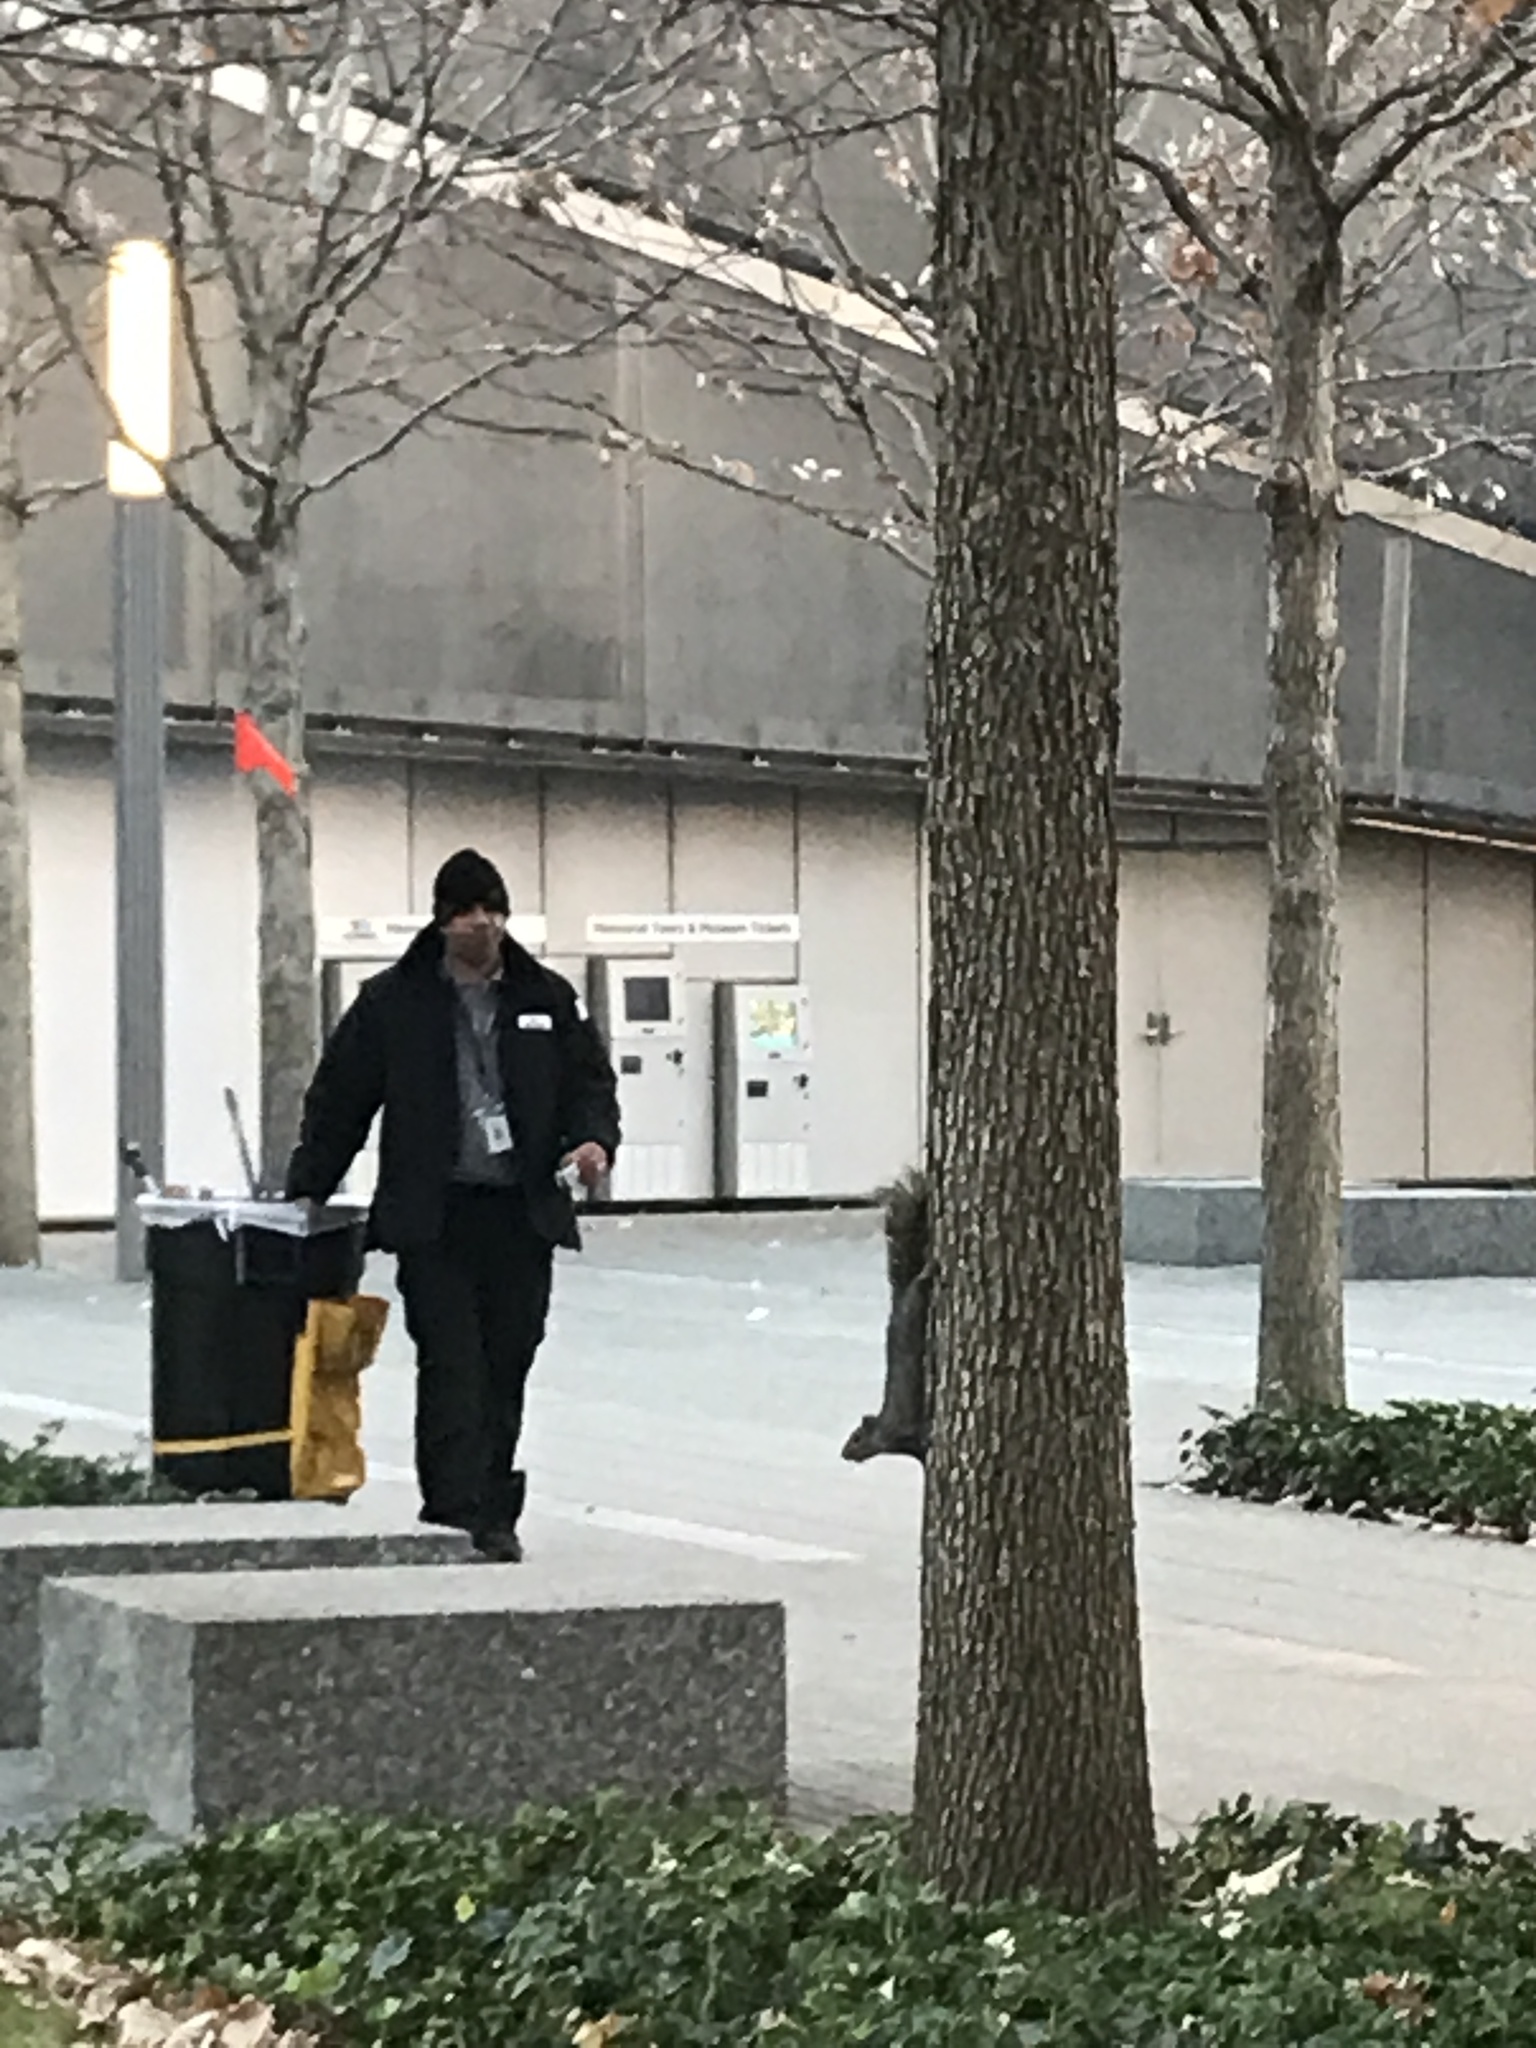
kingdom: Animalia
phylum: Chordata
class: Mammalia
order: Rodentia
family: Sciuridae
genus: Sciurus
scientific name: Sciurus carolinensis
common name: Eastern gray squirrel
